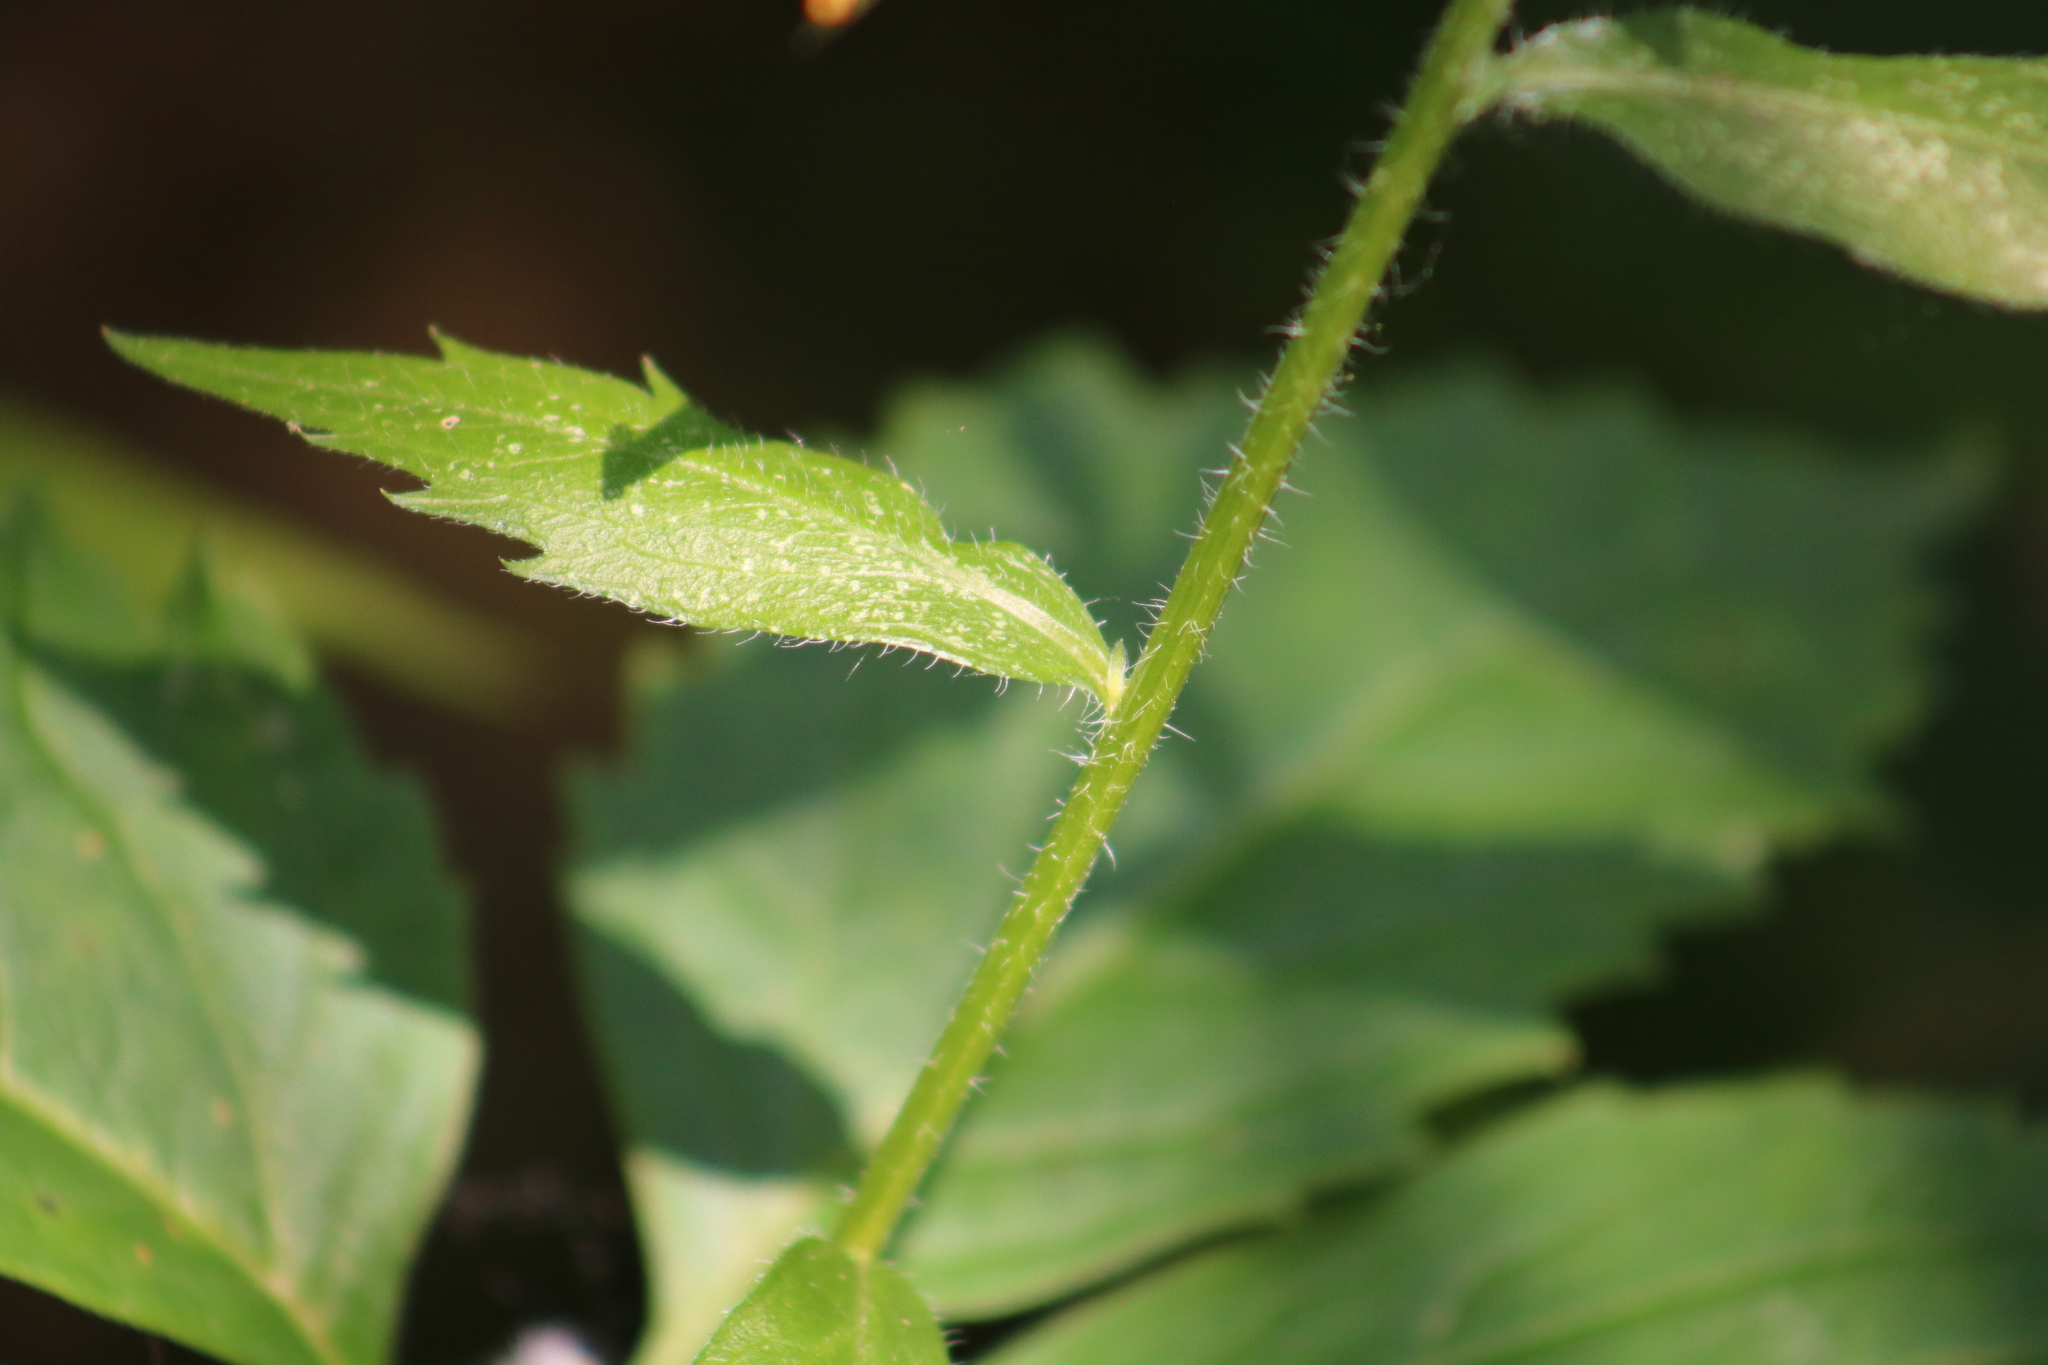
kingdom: Plantae
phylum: Tracheophyta
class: Magnoliopsida
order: Asterales
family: Asteraceae
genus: Erigeron
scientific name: Erigeron annuus
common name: Tall fleabane
